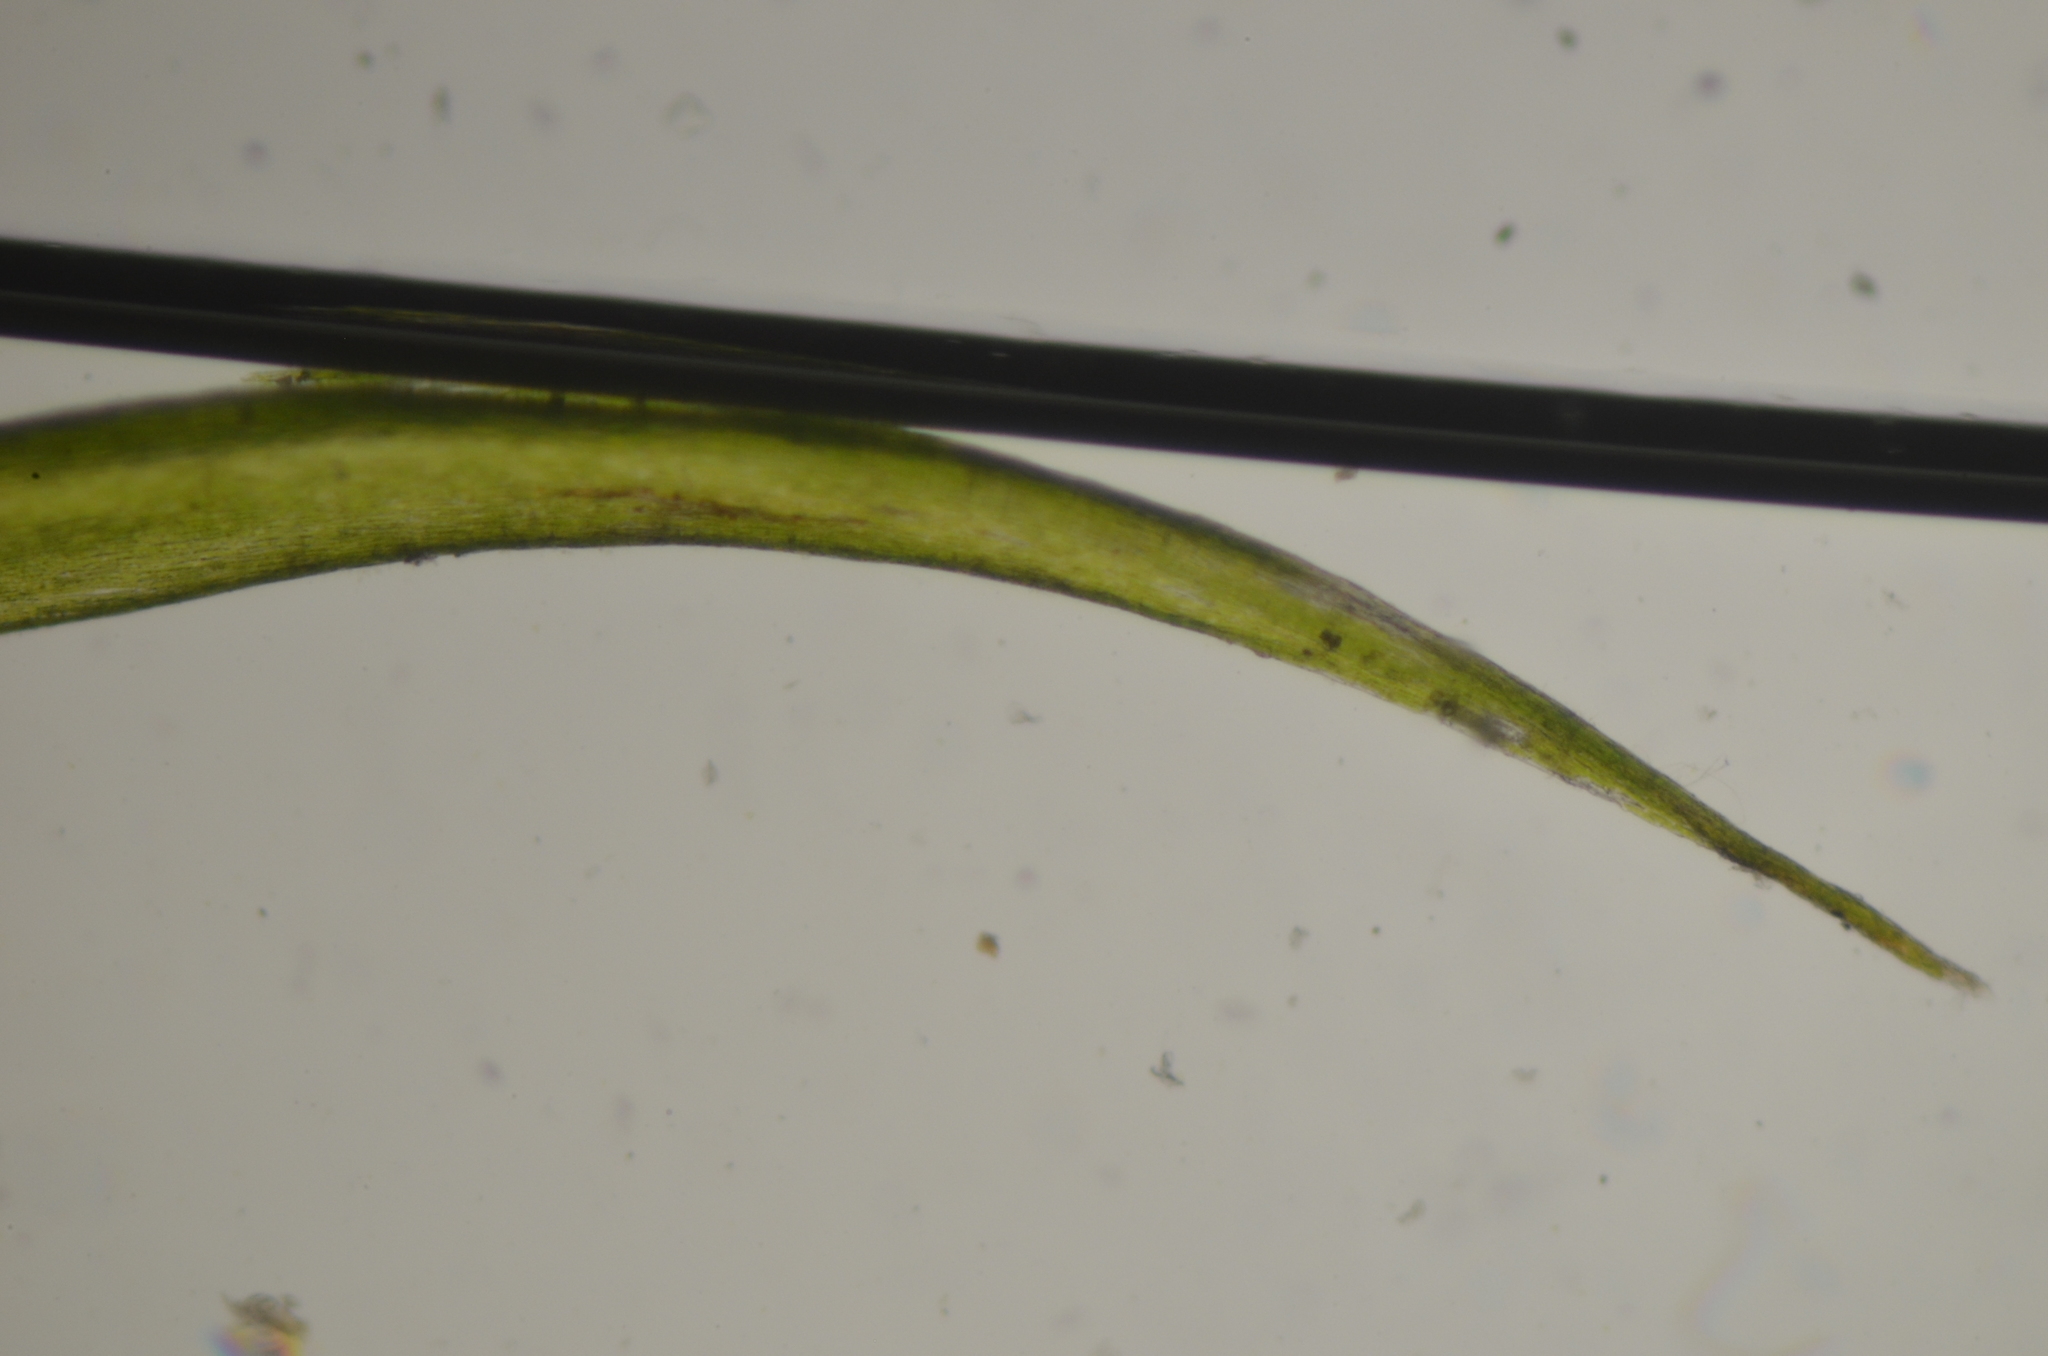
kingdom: Plantae
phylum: Bryophyta
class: Bryopsida
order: Hypnales
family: Fontinalaceae
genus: Dichelyma
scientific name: Dichelyma uncinatum
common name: Sickle-leaved claw moss
